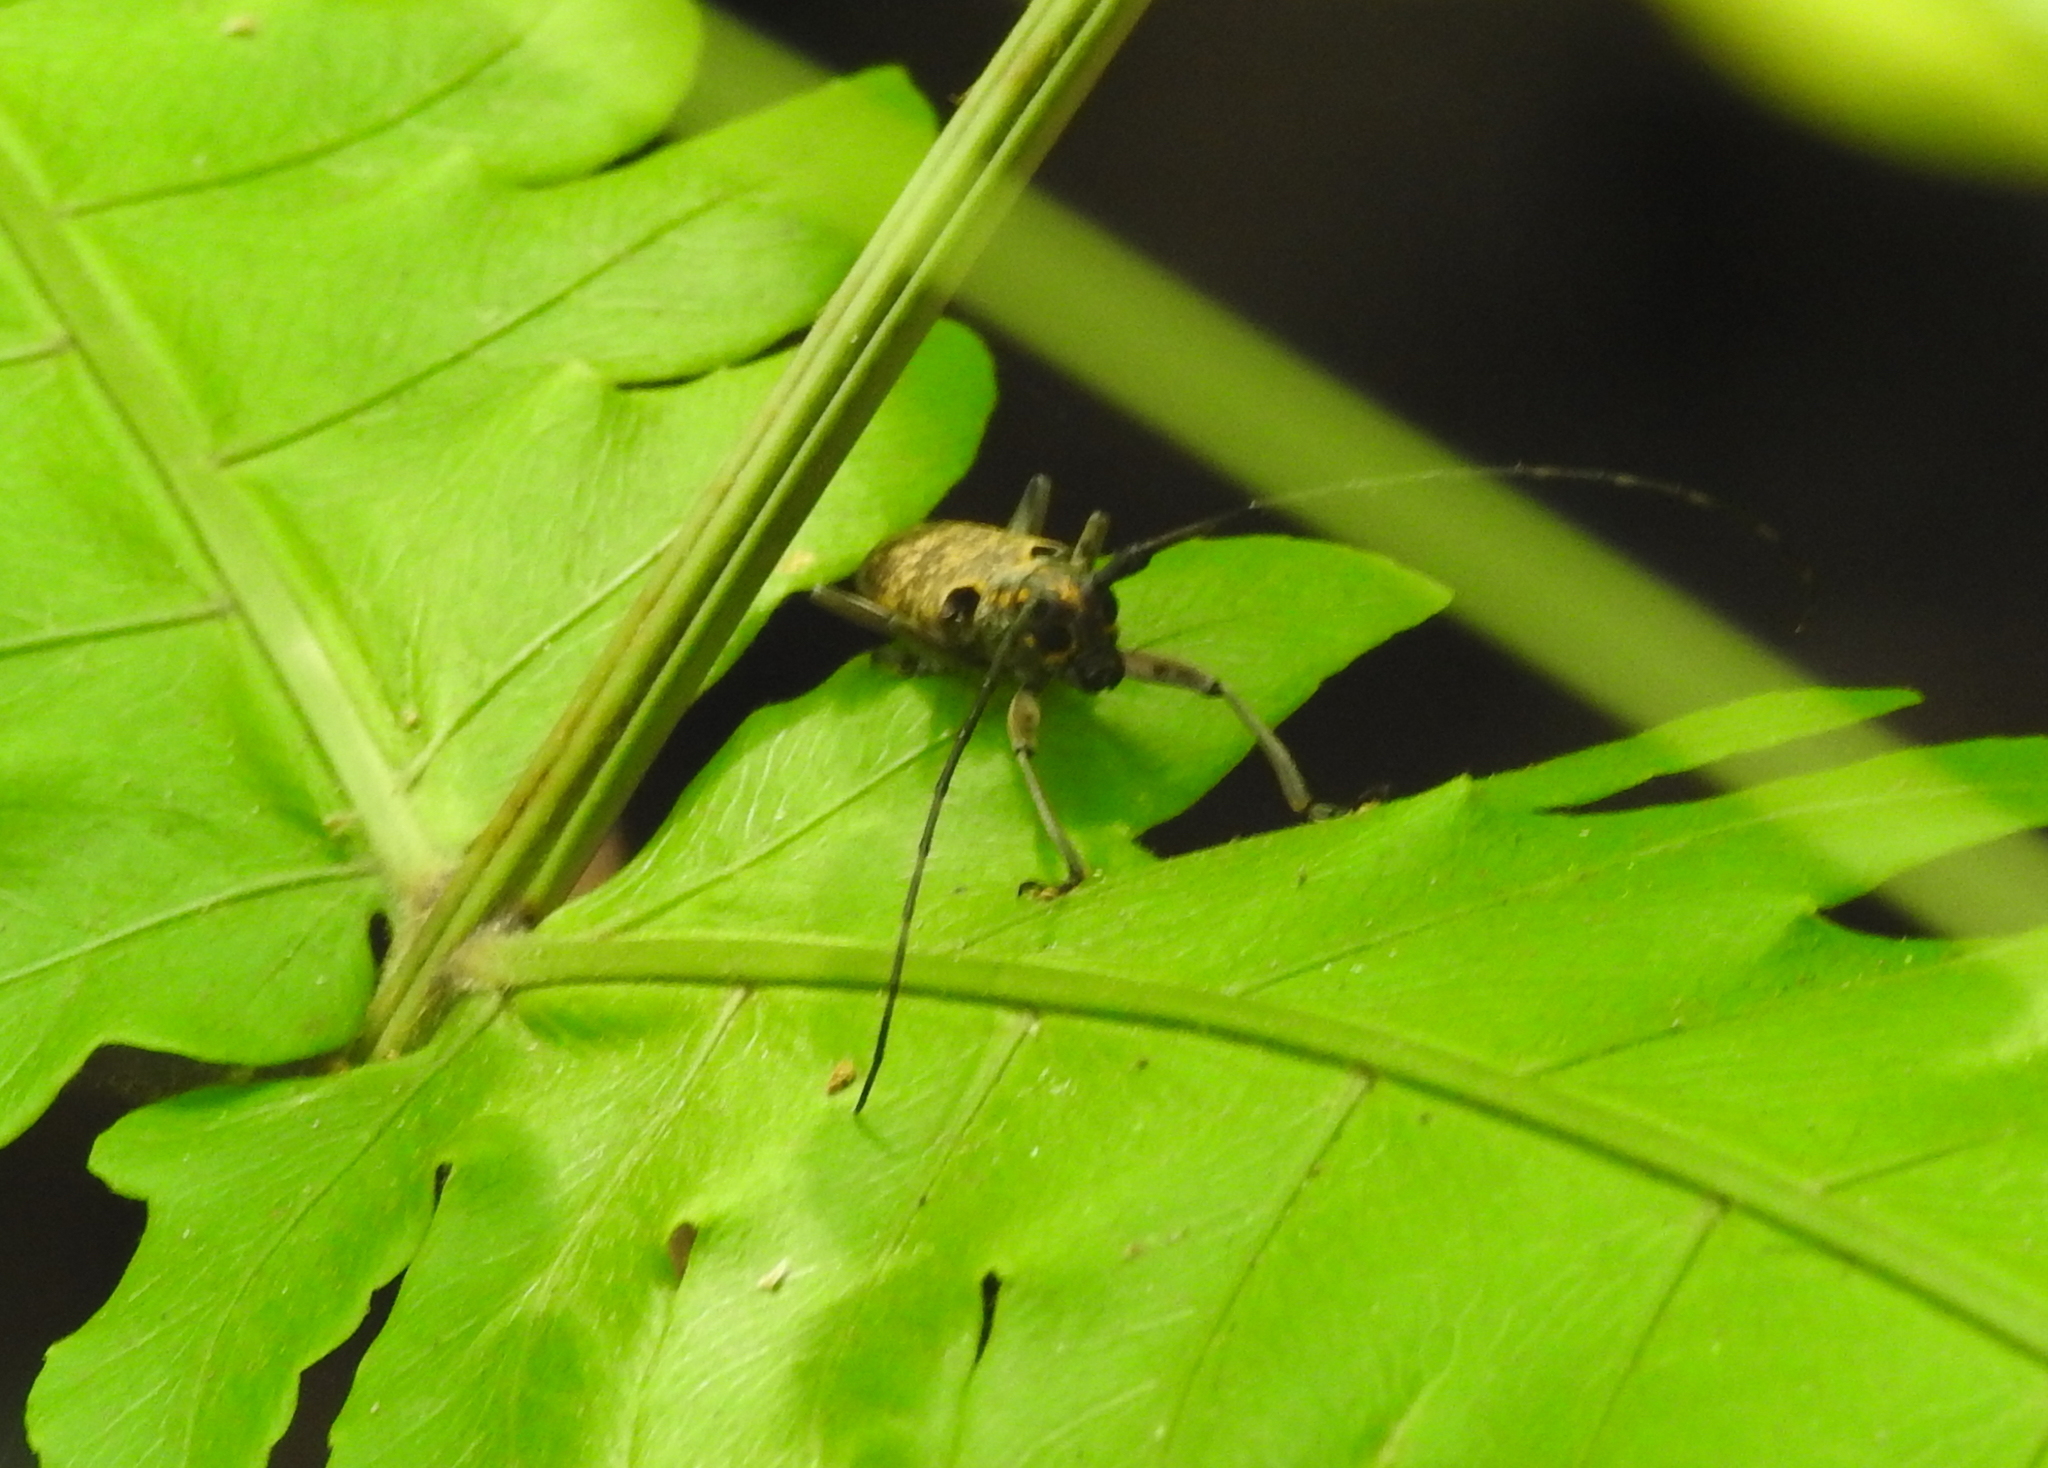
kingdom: Animalia
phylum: Arthropoda
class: Insecta
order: Coleoptera
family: Cerambycidae
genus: Epepeotes
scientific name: Epepeotes luscus
